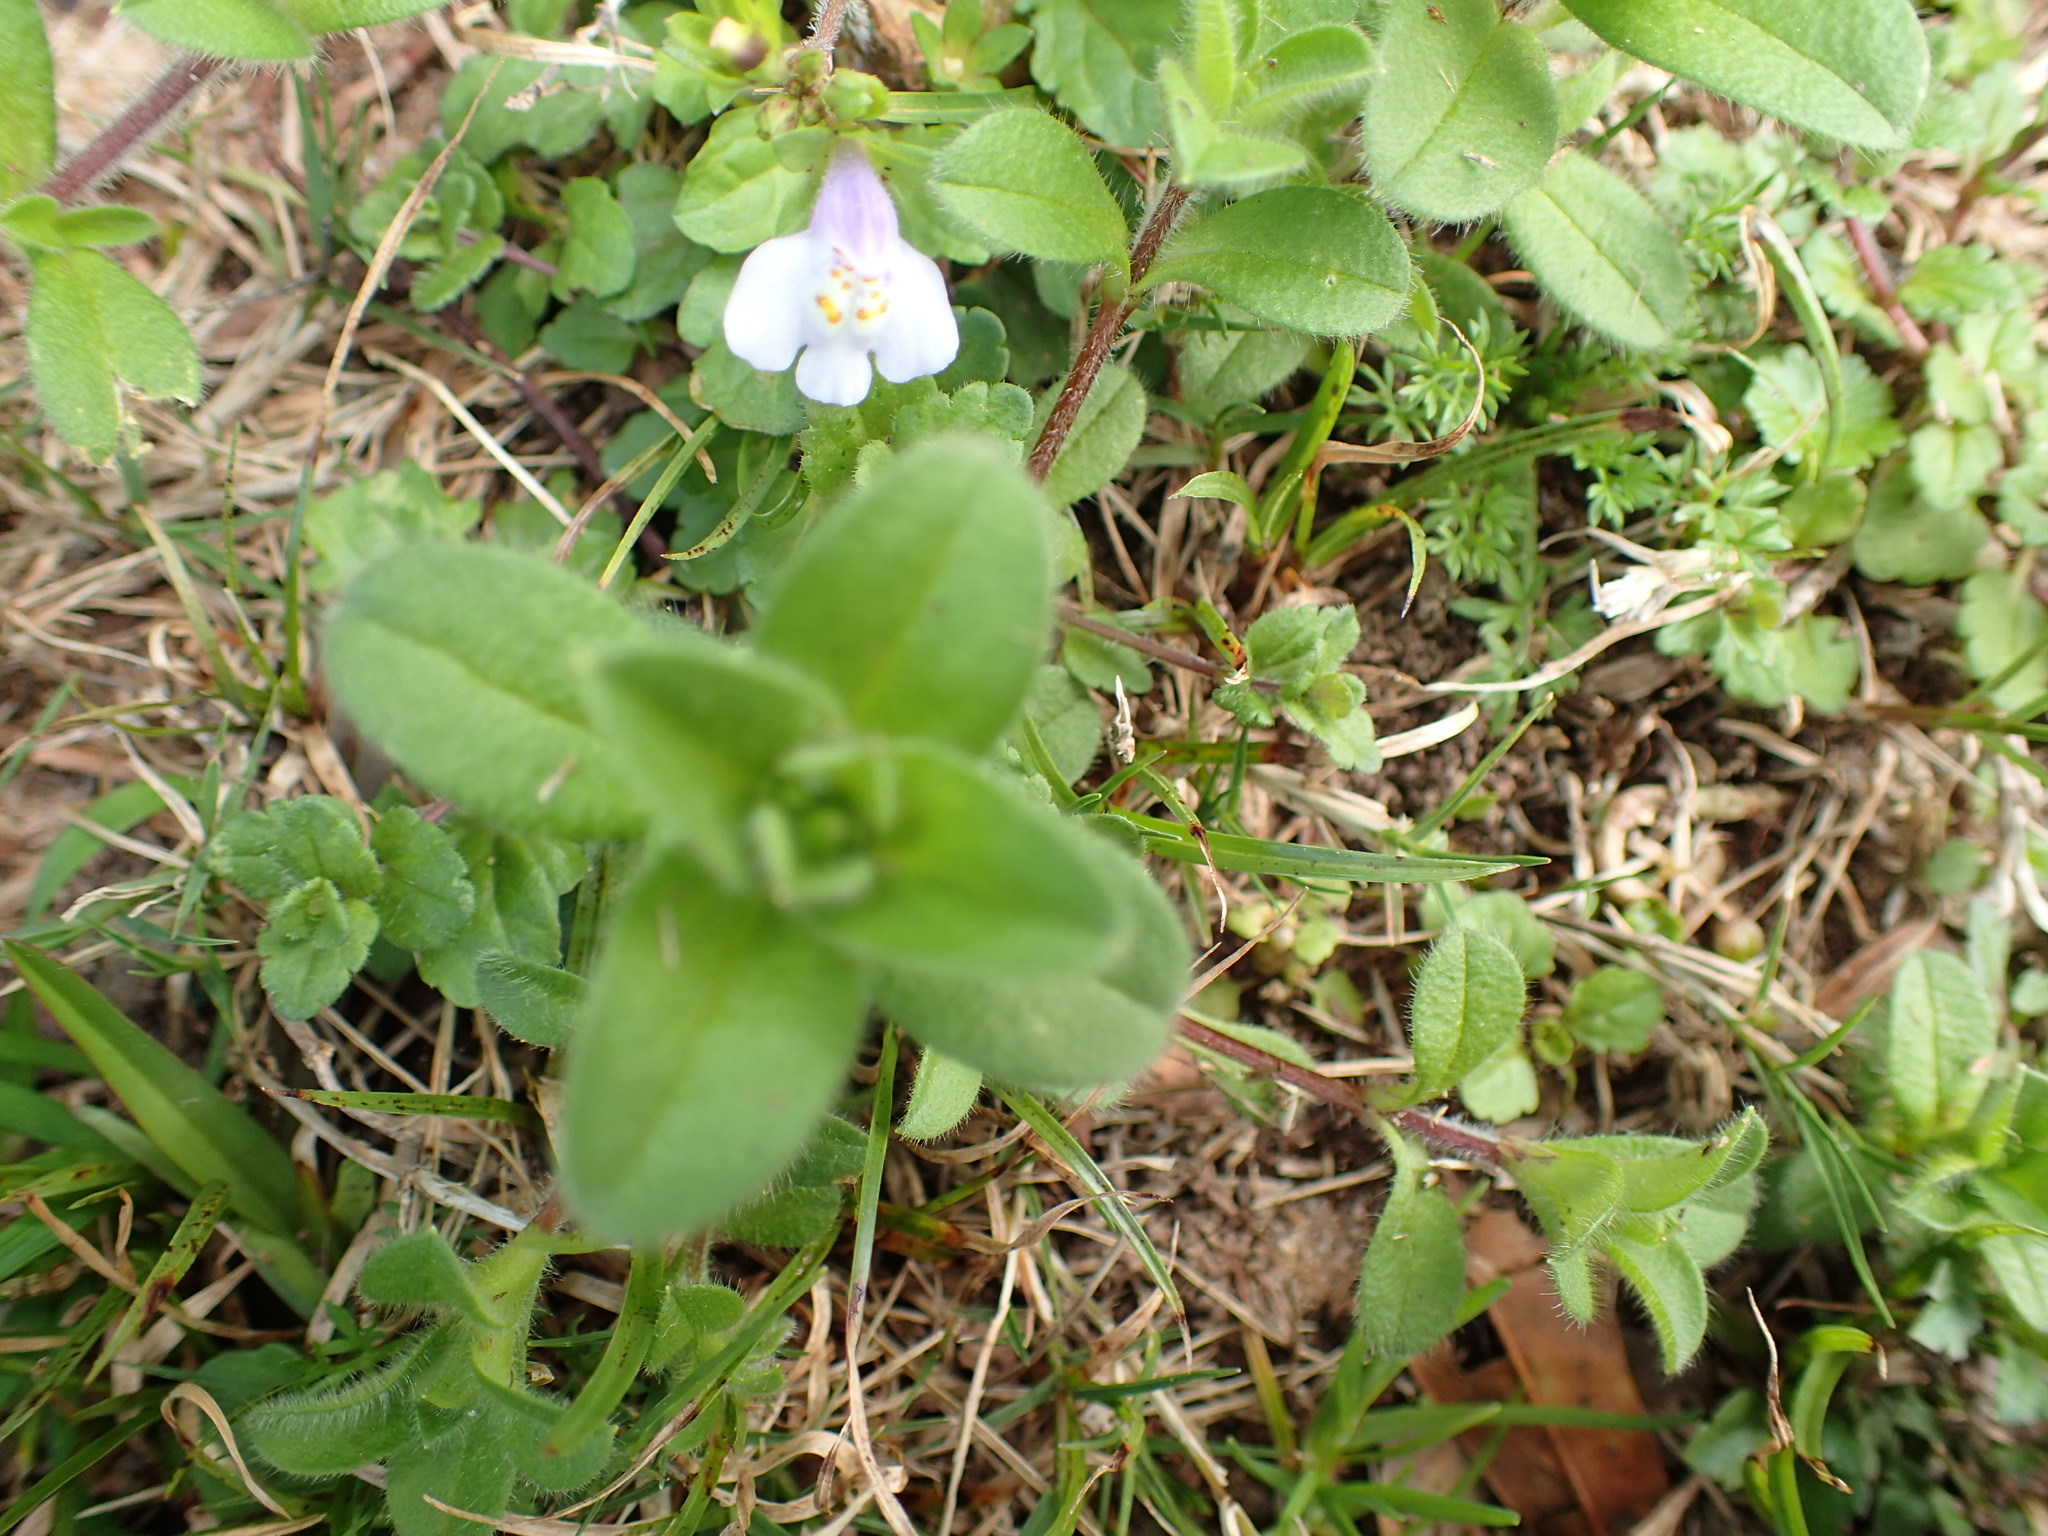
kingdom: Plantae
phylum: Tracheophyta
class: Magnoliopsida
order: Lamiales
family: Mazaceae
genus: Mazus
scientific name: Mazus pumilus
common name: Japanese mazus
